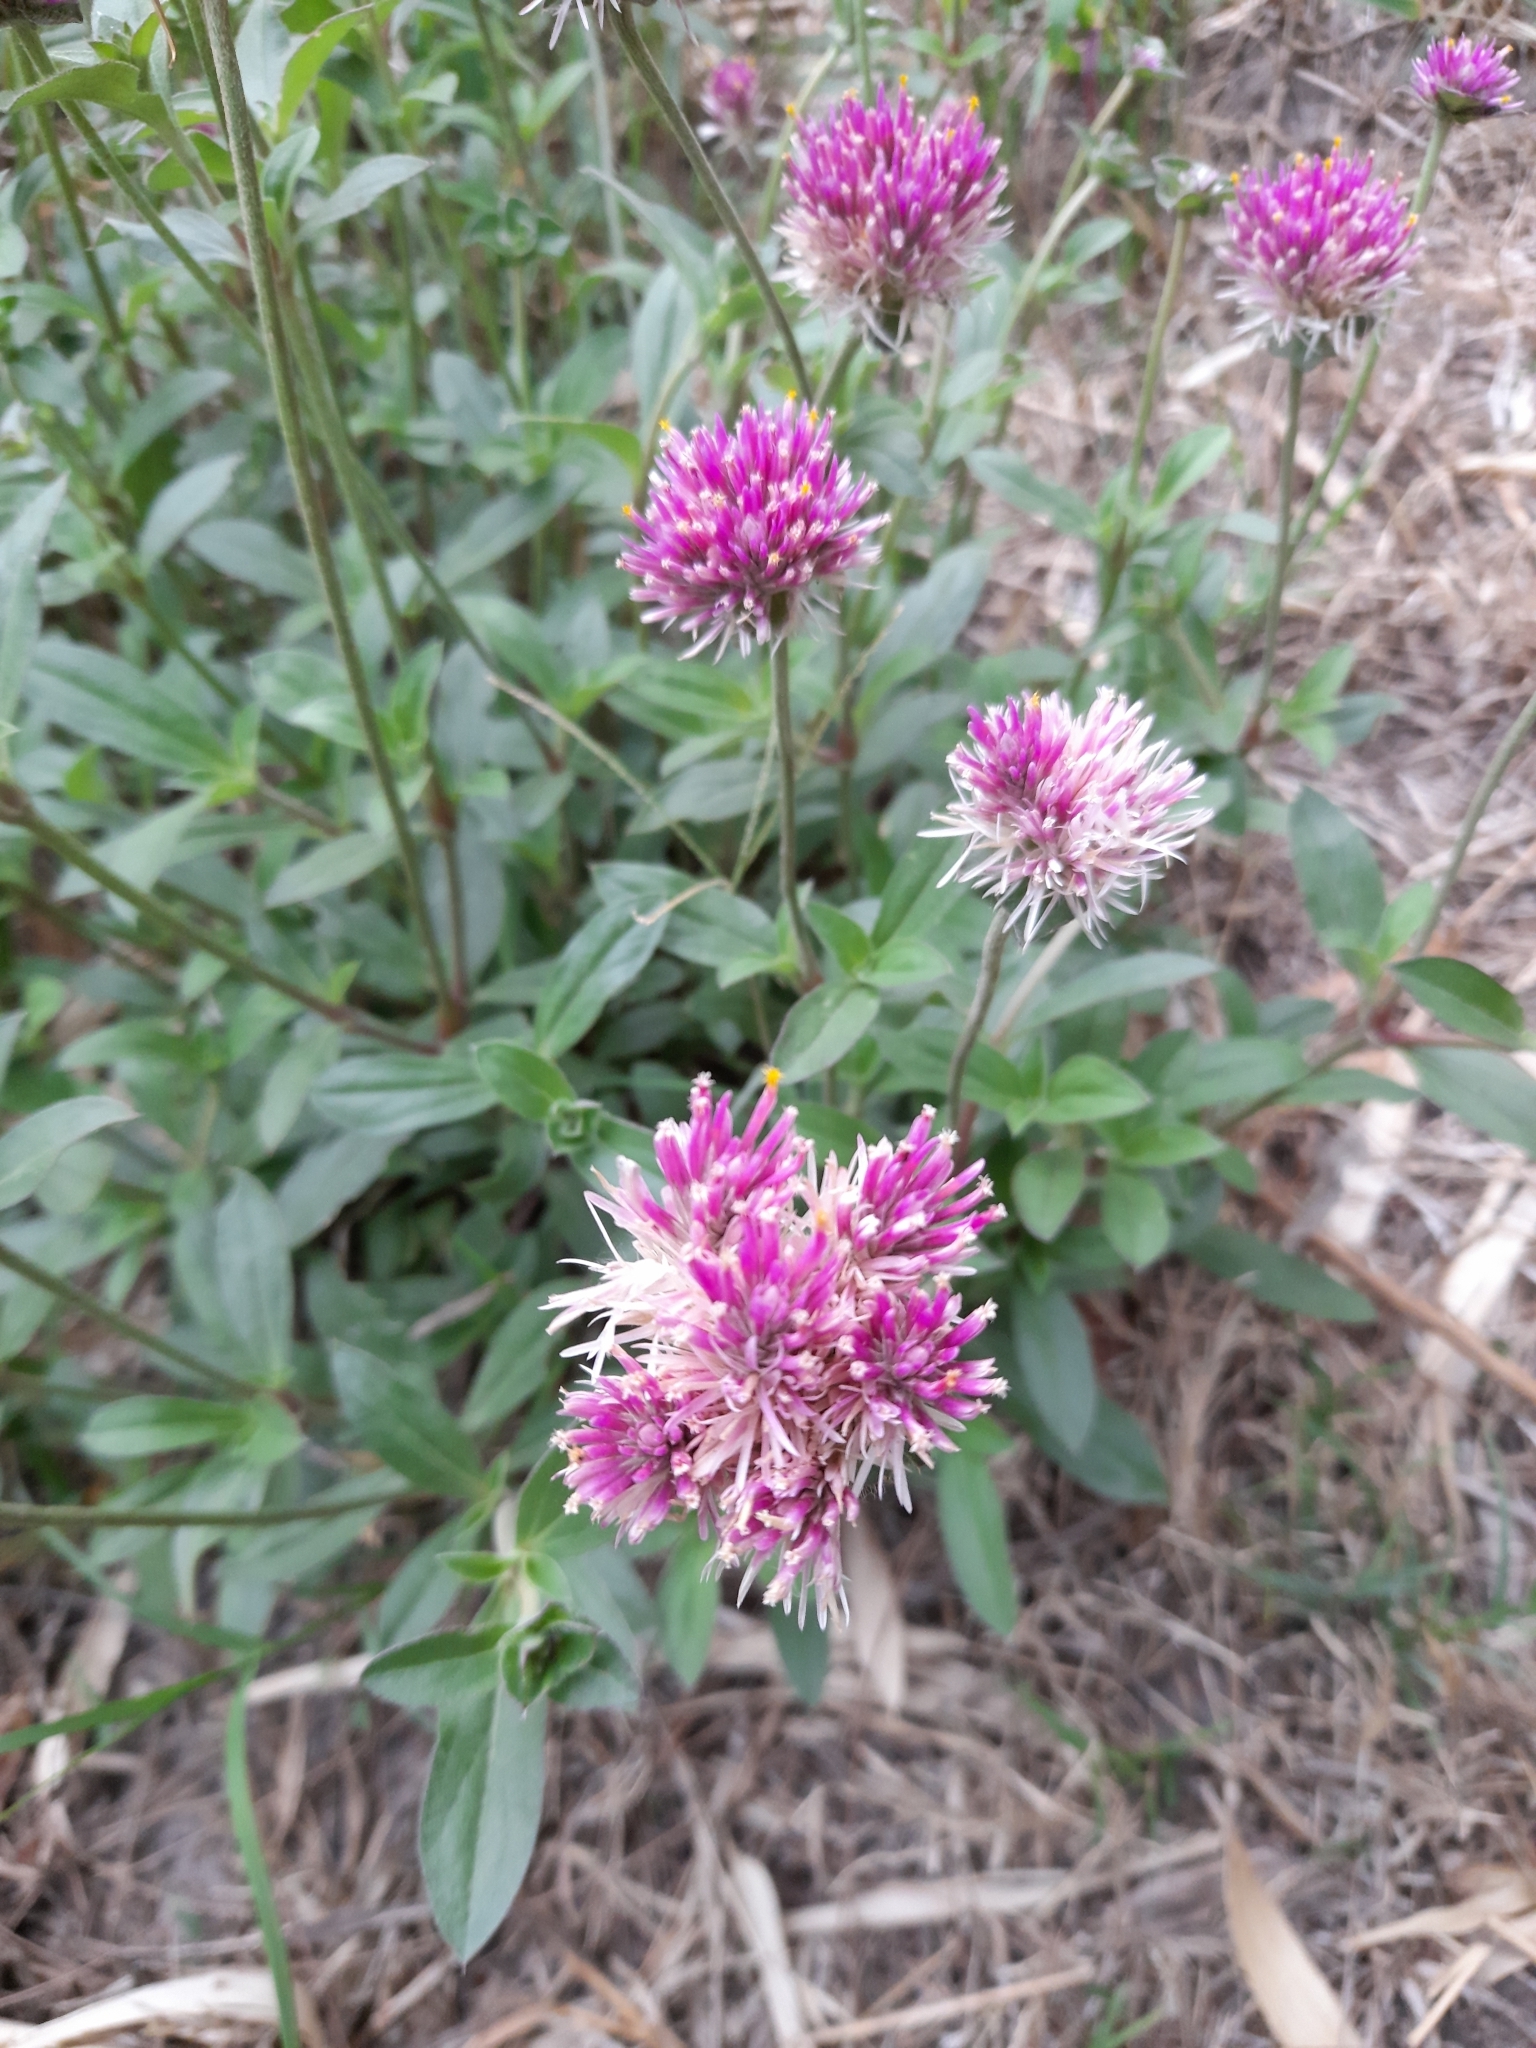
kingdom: Plantae
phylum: Tracheophyta
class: Magnoliopsida
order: Caryophyllales
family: Amaranthaceae
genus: Gomphrena
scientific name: Gomphrena pulchella
